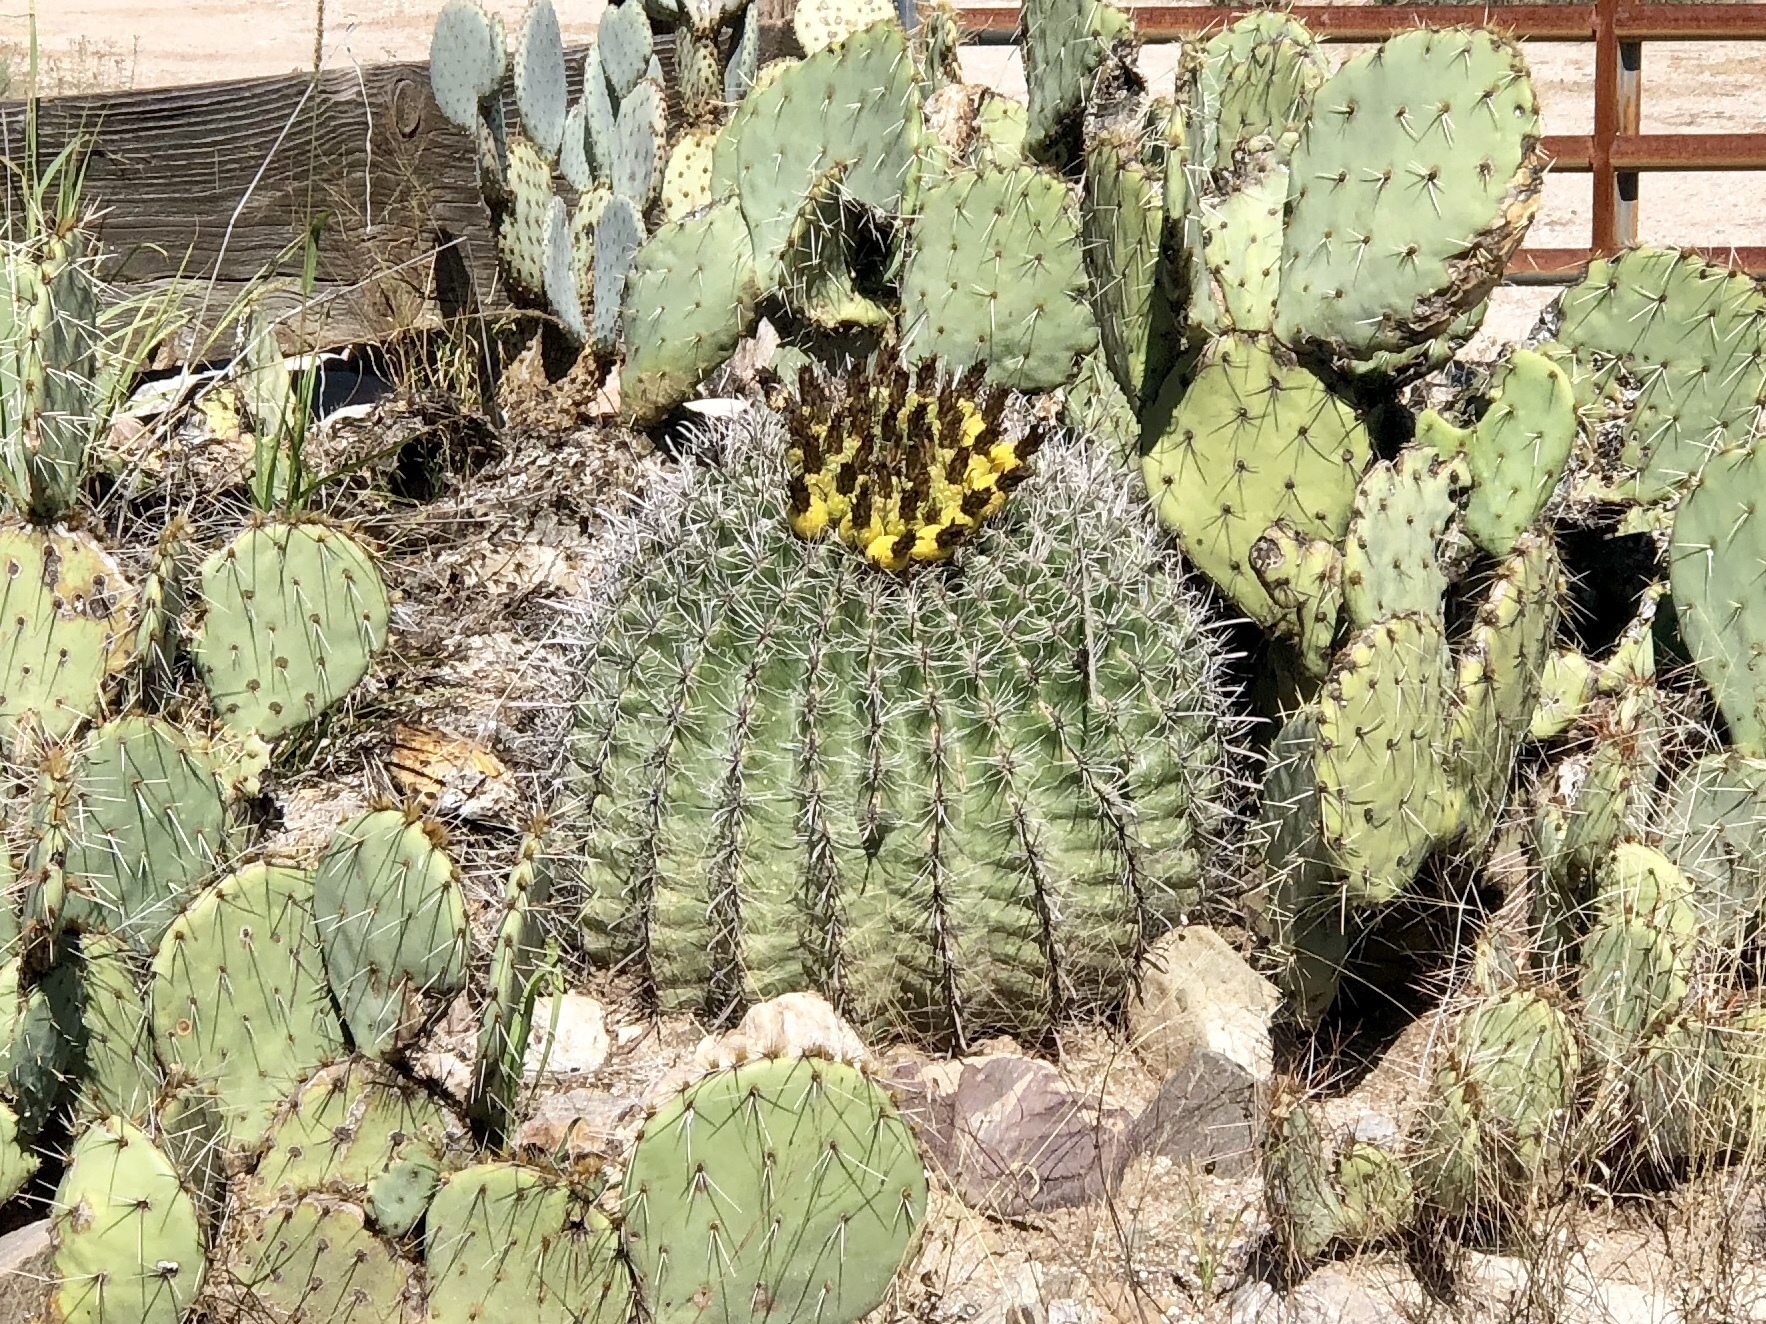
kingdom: Plantae
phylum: Tracheophyta
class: Magnoliopsida
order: Caryophyllales
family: Cactaceae
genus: Ferocactus
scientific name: Ferocactus wislizeni
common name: Candy barrel cactus
